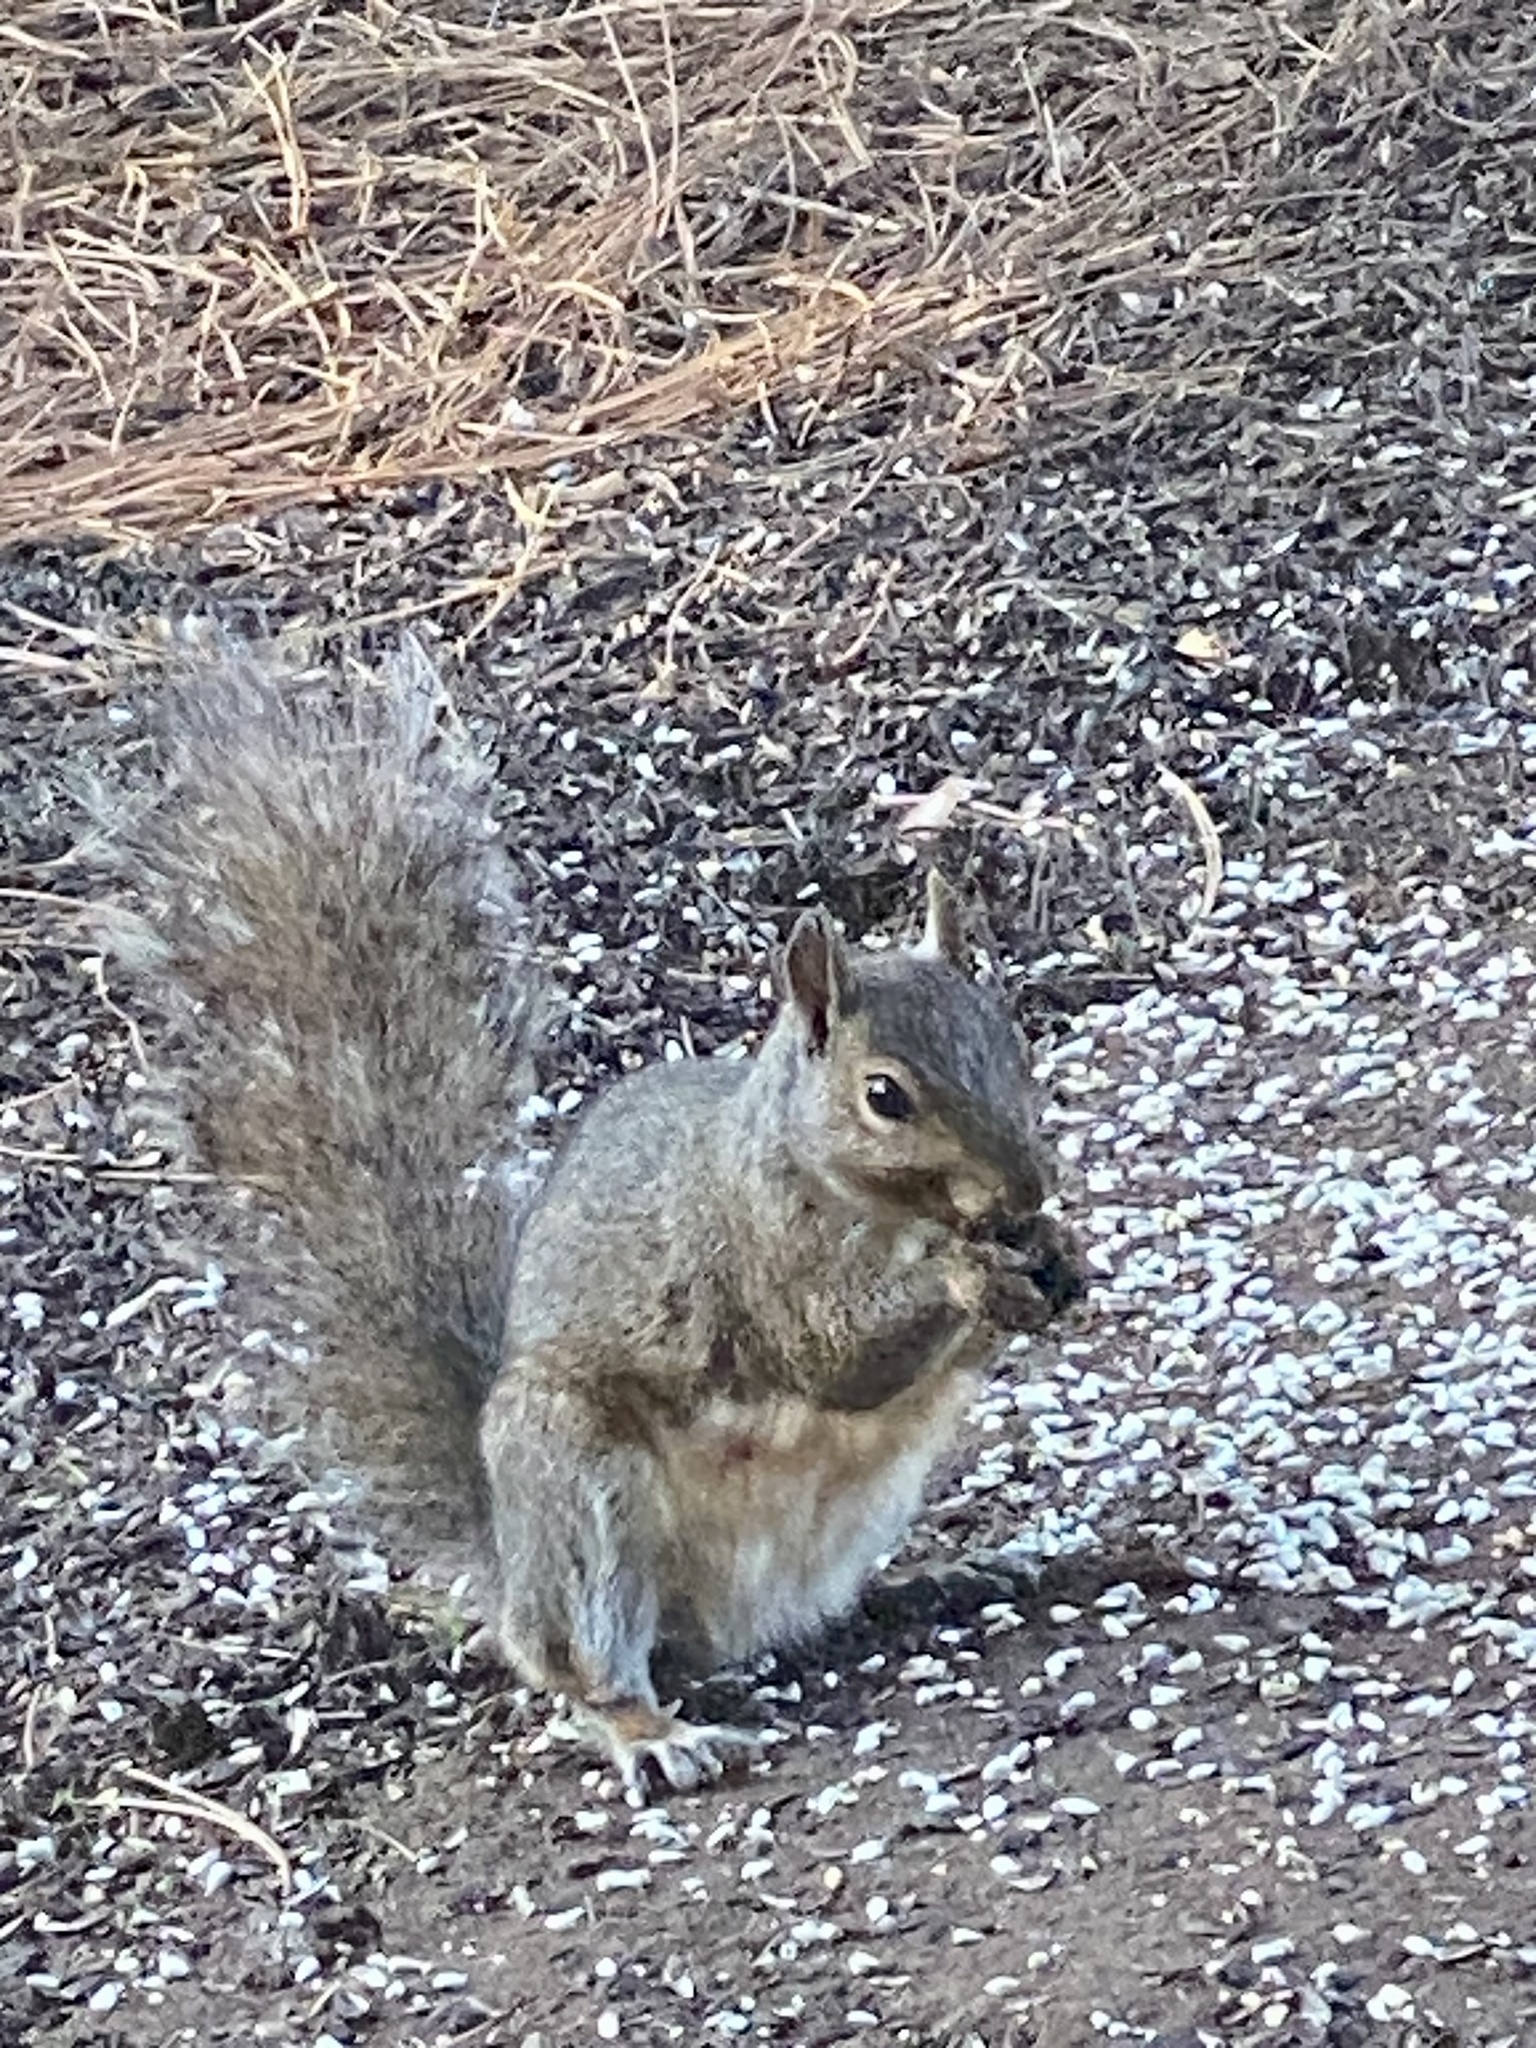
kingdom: Animalia
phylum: Chordata
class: Mammalia
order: Rodentia
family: Sciuridae
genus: Sciurus
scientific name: Sciurus carolinensis
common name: Eastern gray squirrel
